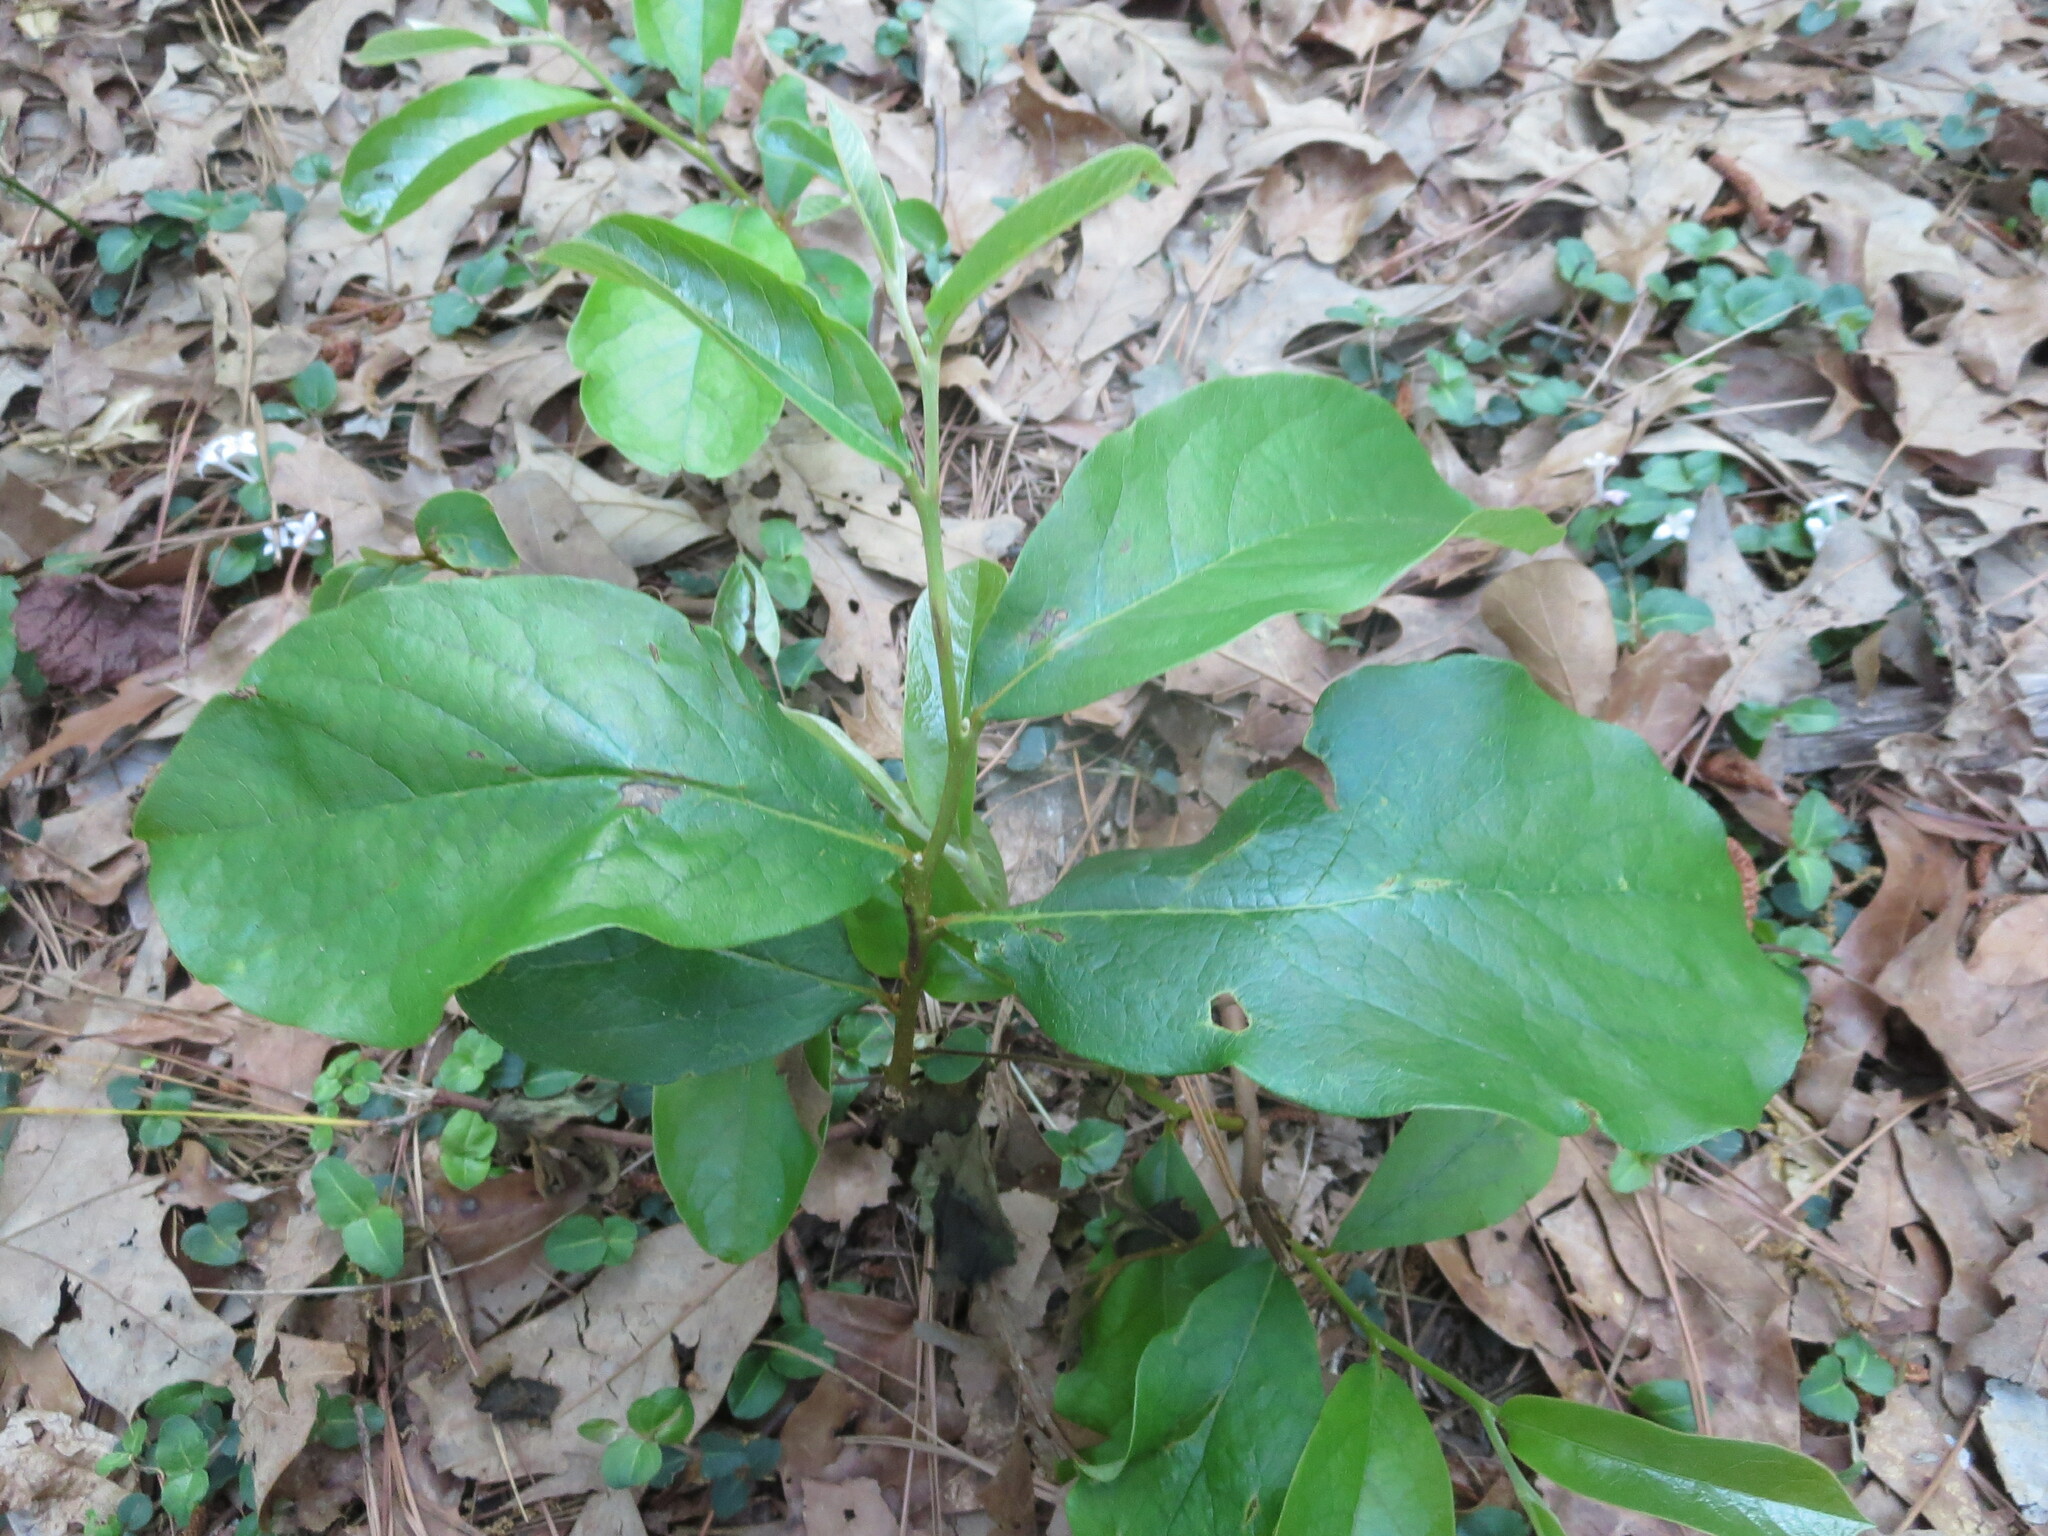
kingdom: Plantae
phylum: Tracheophyta
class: Magnoliopsida
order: Magnoliales
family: Annonaceae
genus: Asimina
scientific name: Asimina parviflora
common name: Dwarf pawpaw
